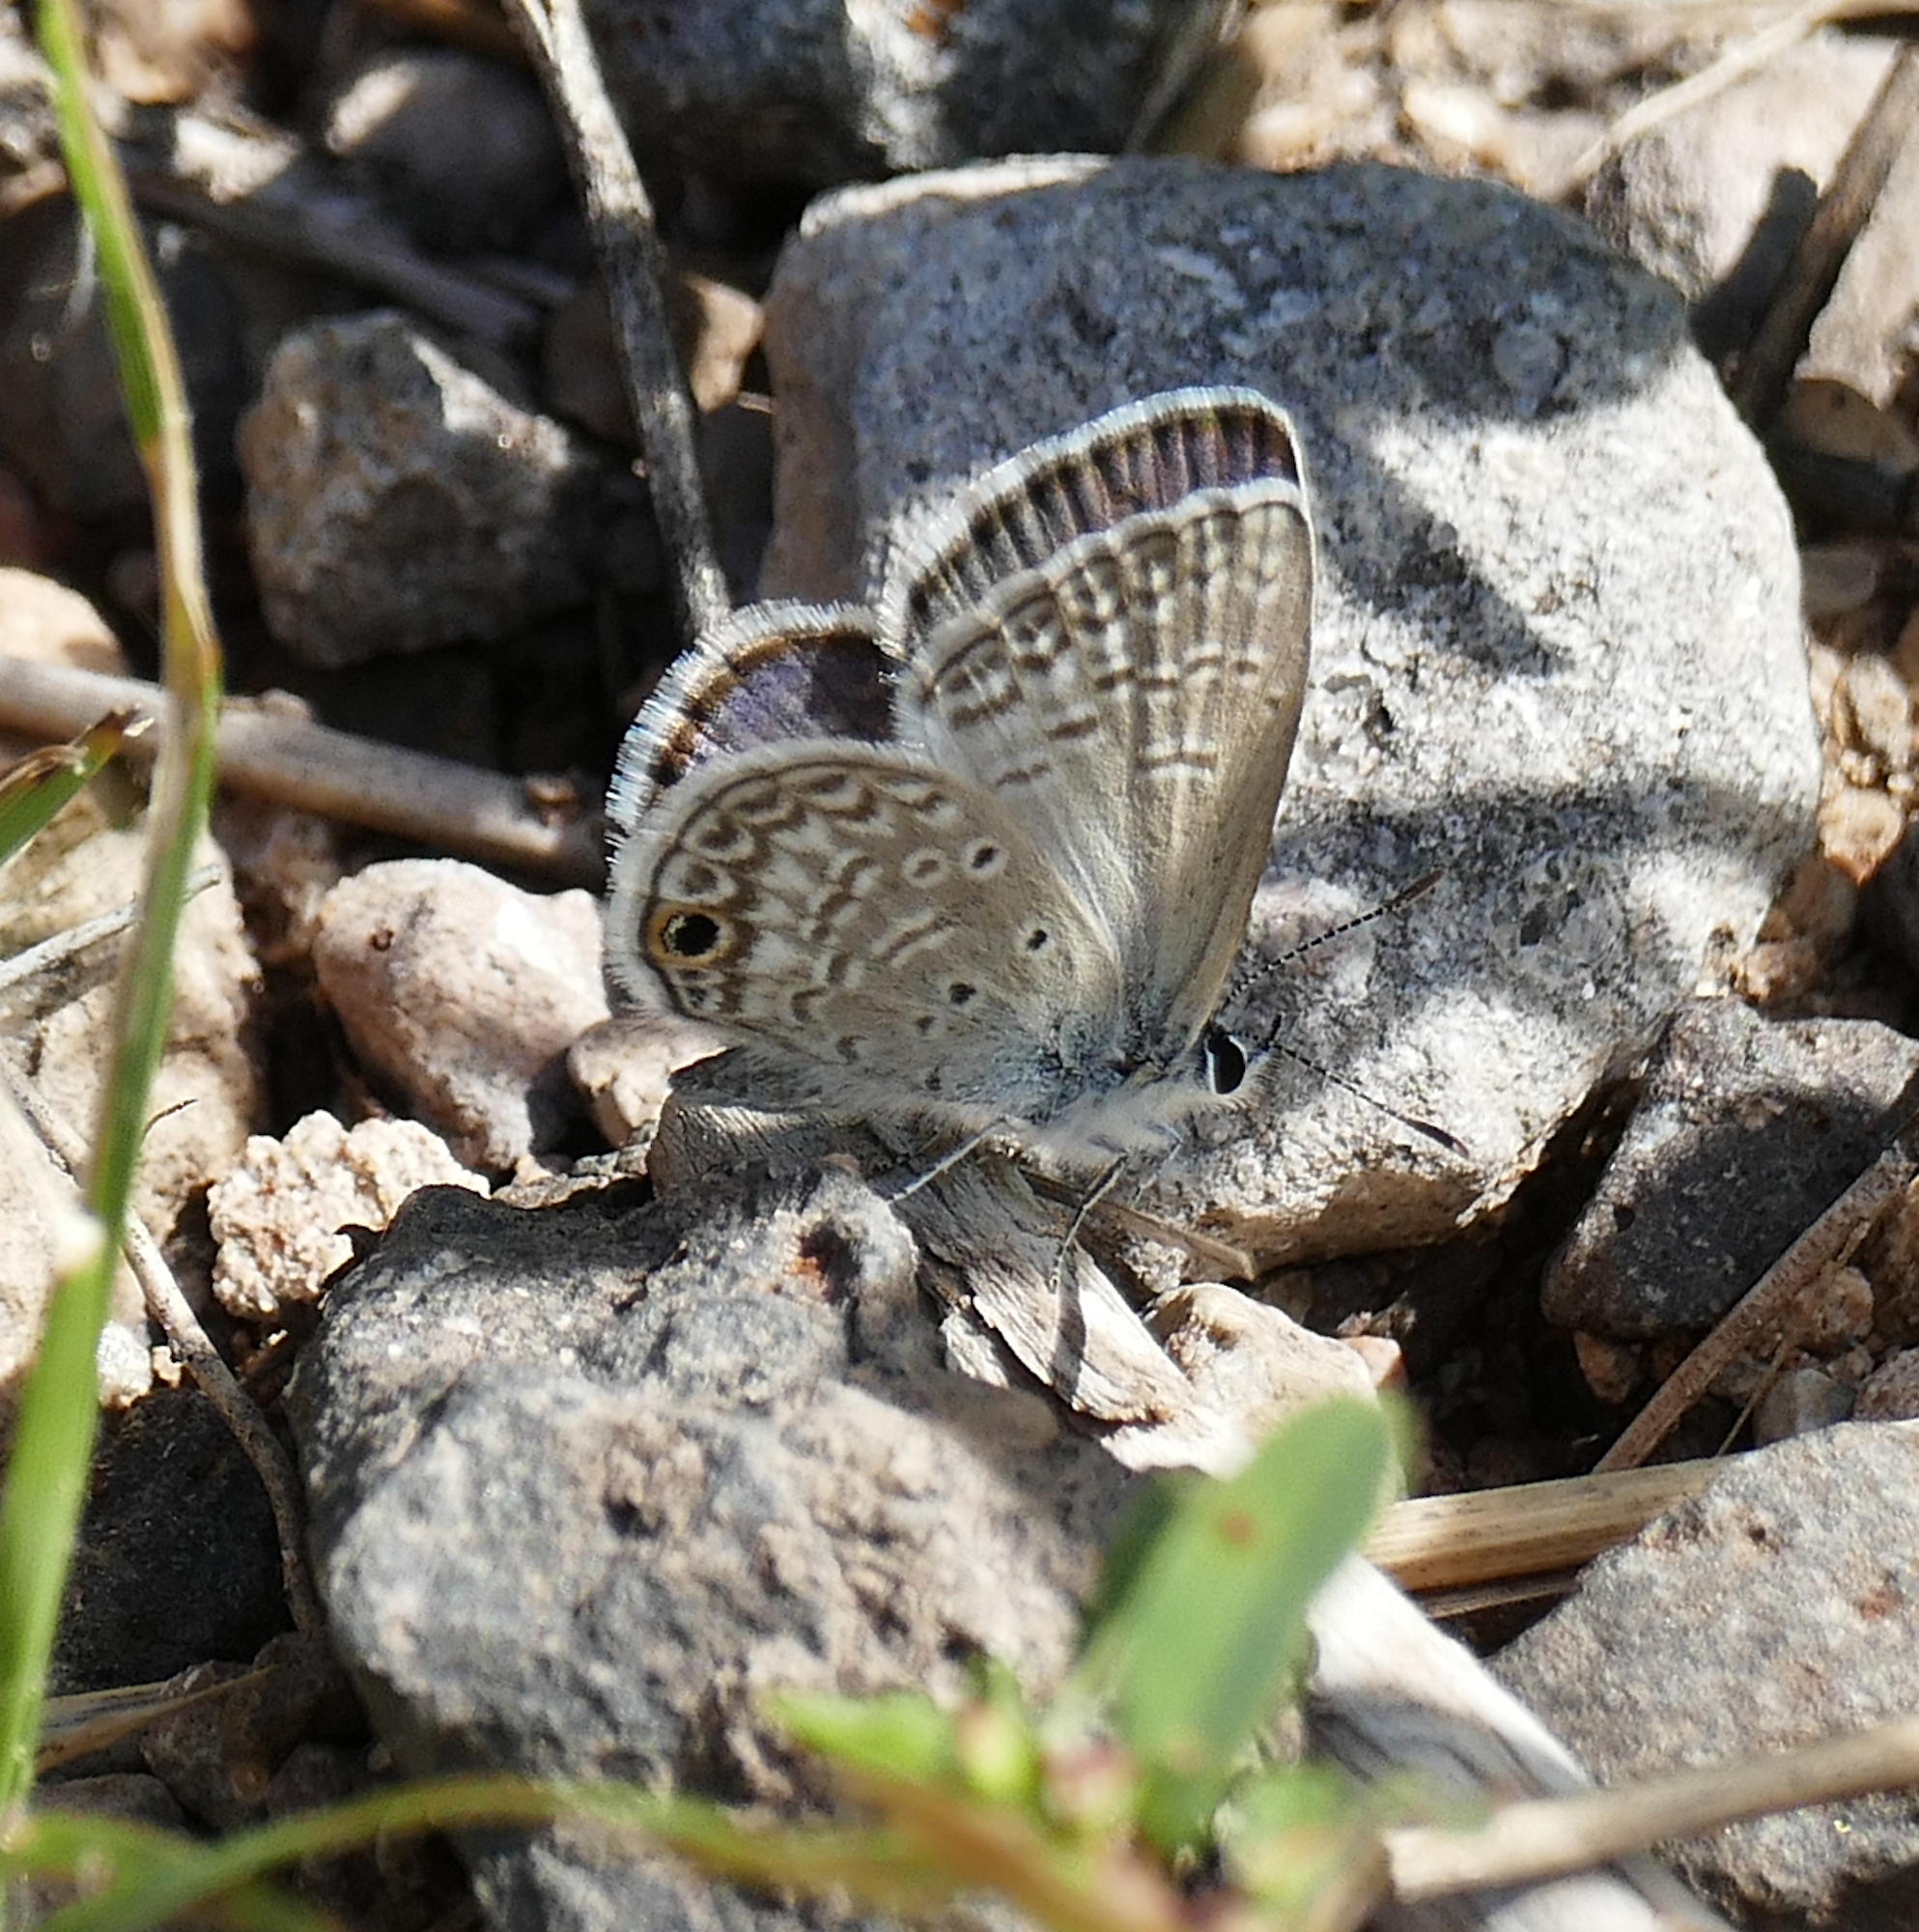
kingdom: Animalia
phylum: Arthropoda
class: Insecta
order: Lepidoptera
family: Lycaenidae
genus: Hemiargus
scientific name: Hemiargus ceraunus
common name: Ceraunus blue
